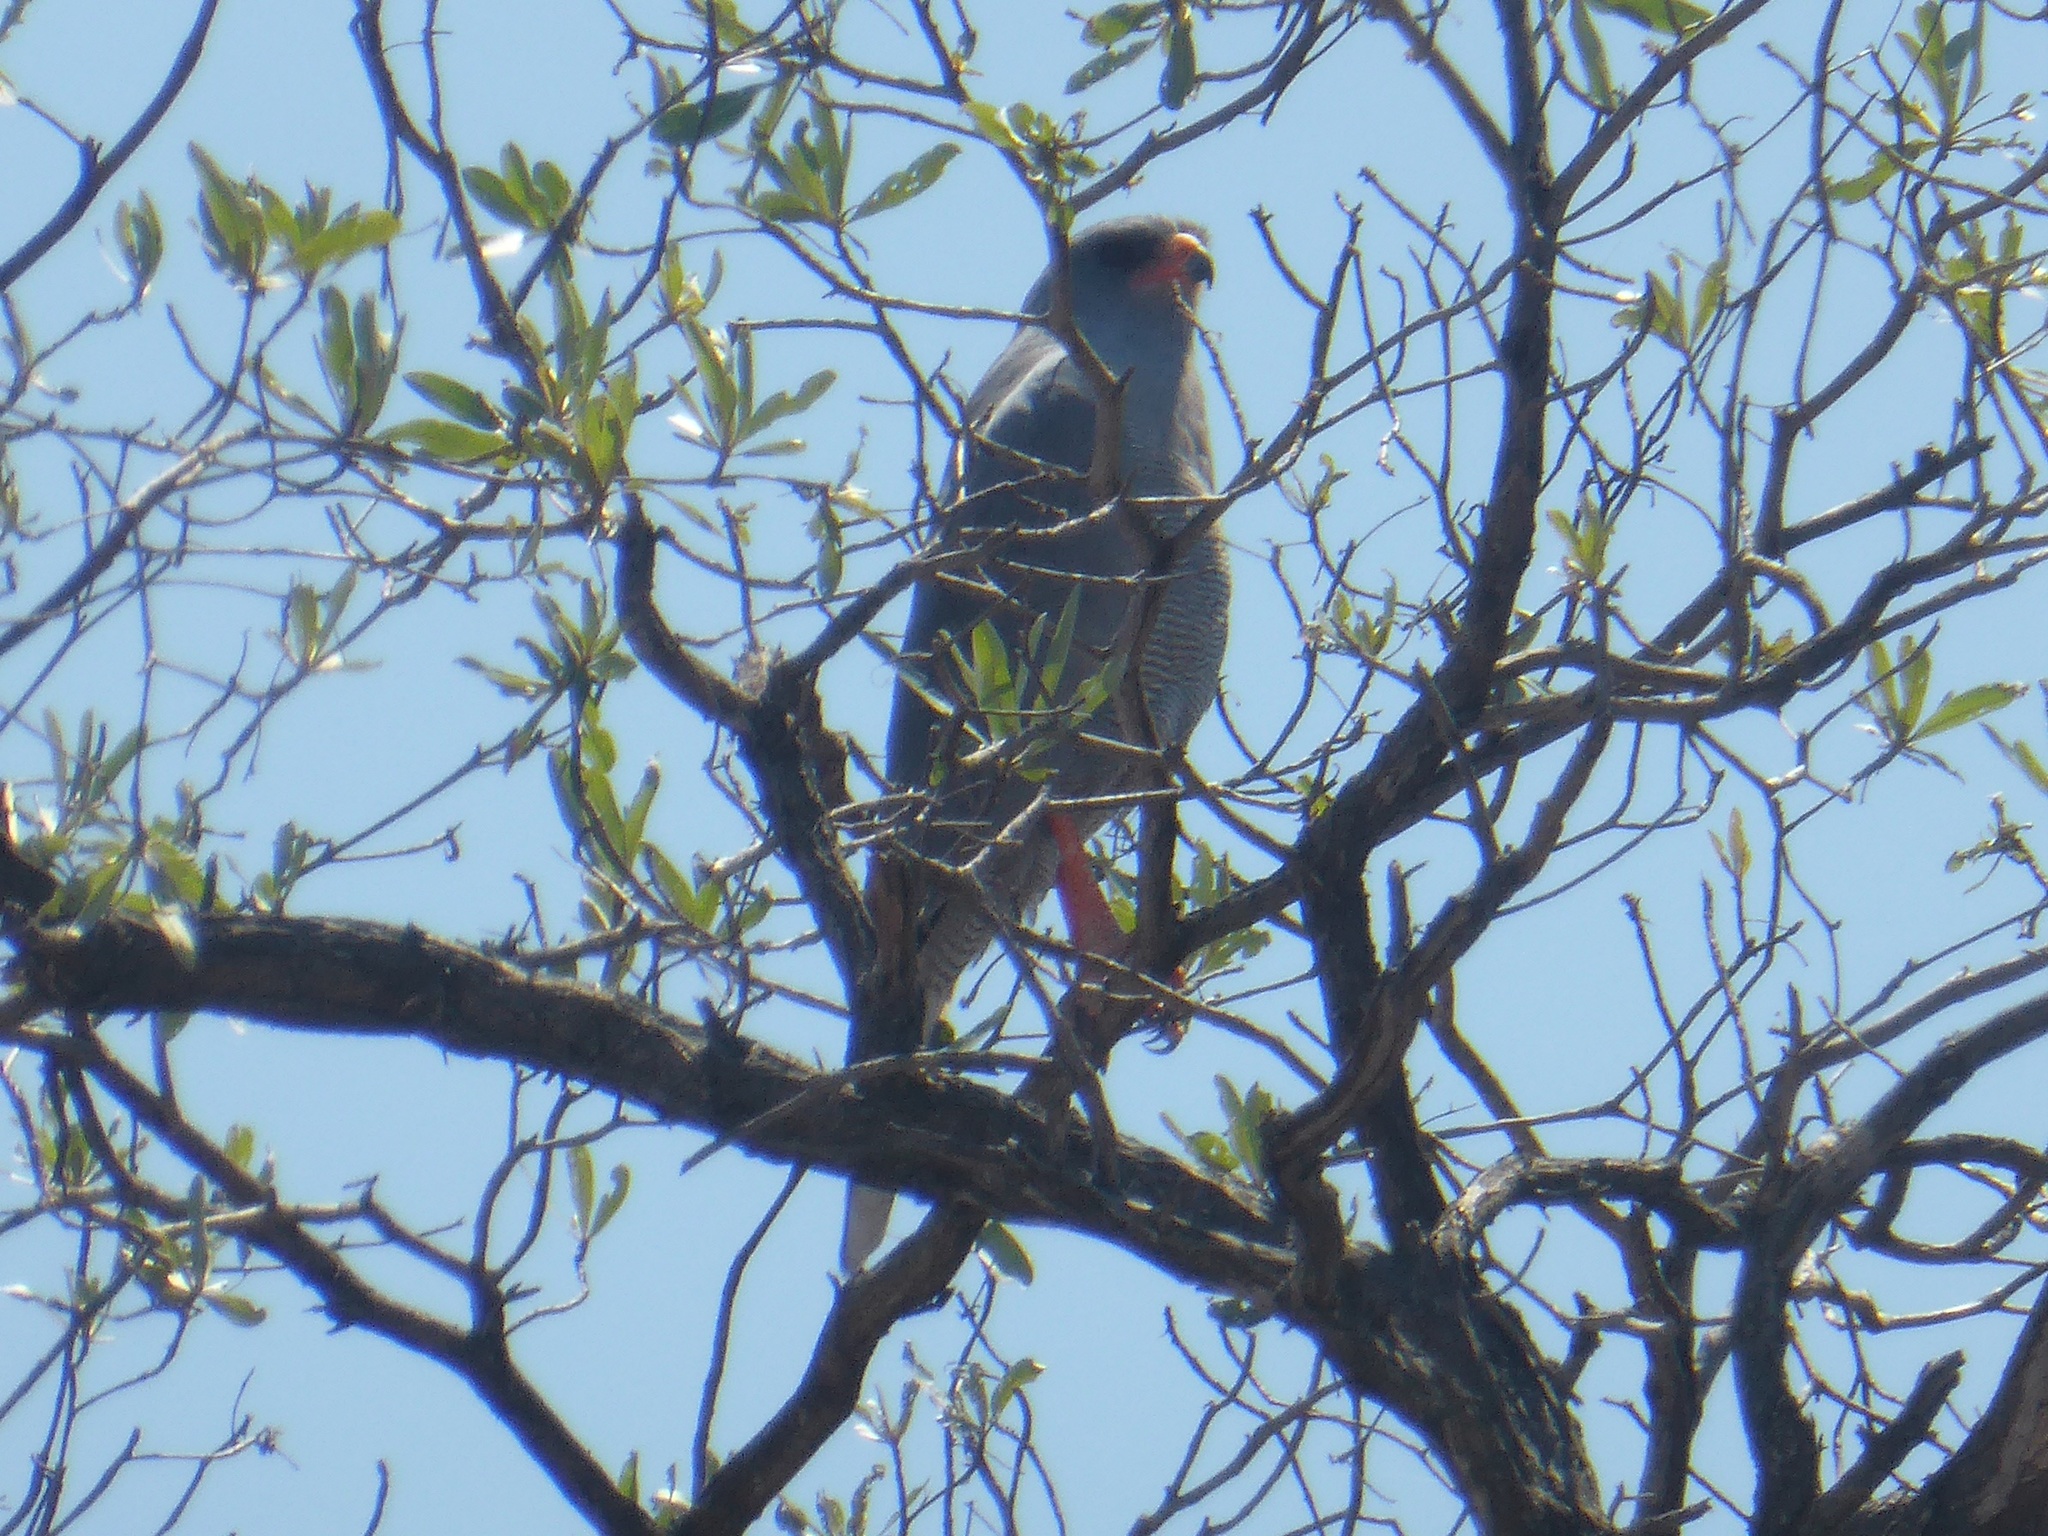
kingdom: Animalia
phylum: Chordata
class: Aves
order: Accipitriformes
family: Accipitridae
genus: Melierax
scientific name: Melierax metabates
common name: Dark chanting-goshawk
